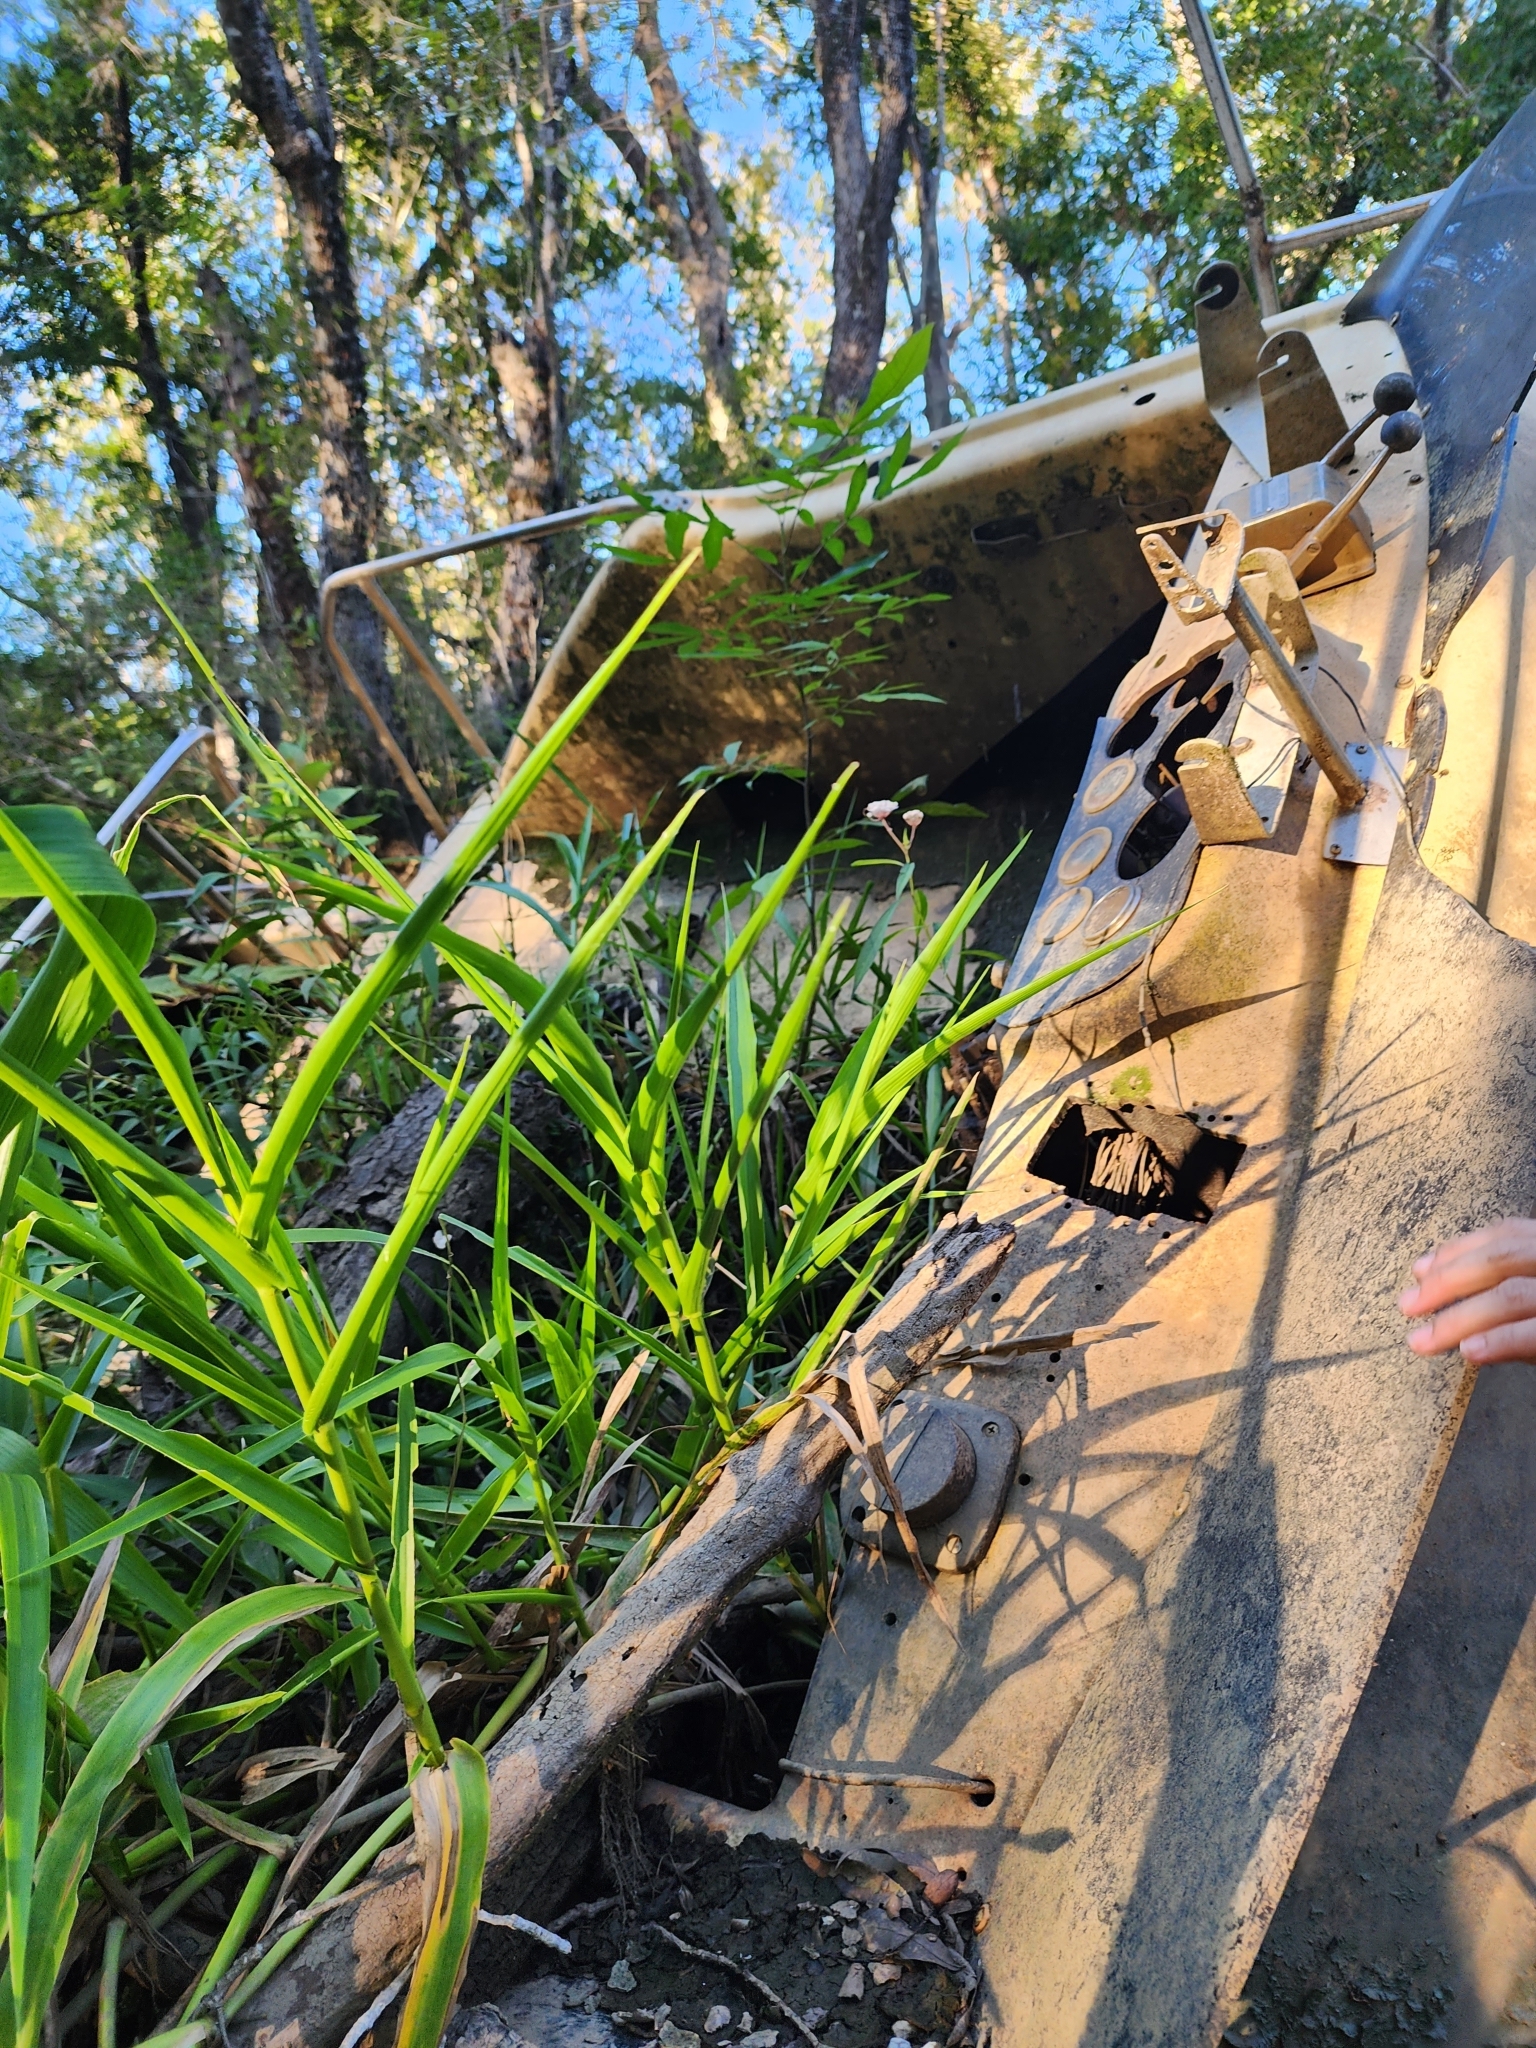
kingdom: Plantae
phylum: Tracheophyta
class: Magnoliopsida
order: Gentianales
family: Apocynaceae
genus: Asclepias
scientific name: Asclepias perennis
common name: Smooth-seed milkweed
